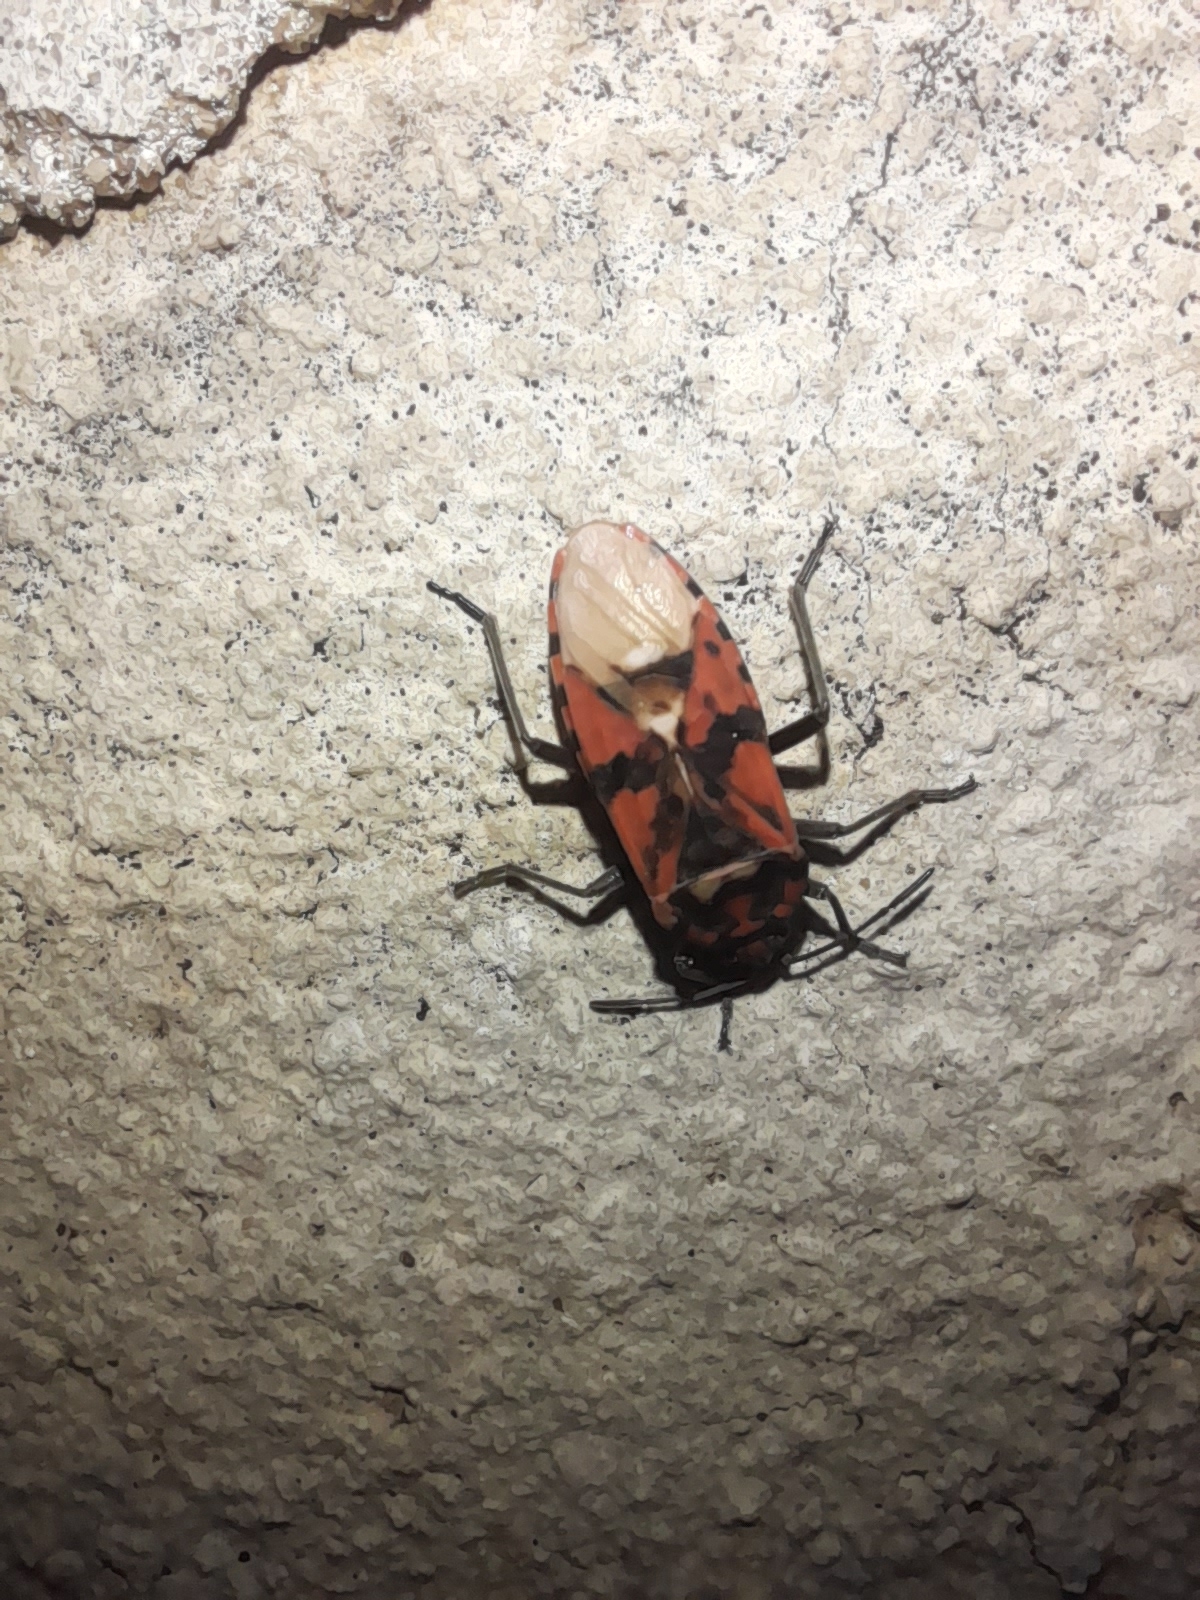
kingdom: Animalia
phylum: Arthropoda
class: Insecta
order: Hemiptera
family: Lygaeidae
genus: Spilostethus
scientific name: Spilostethus pandurus
